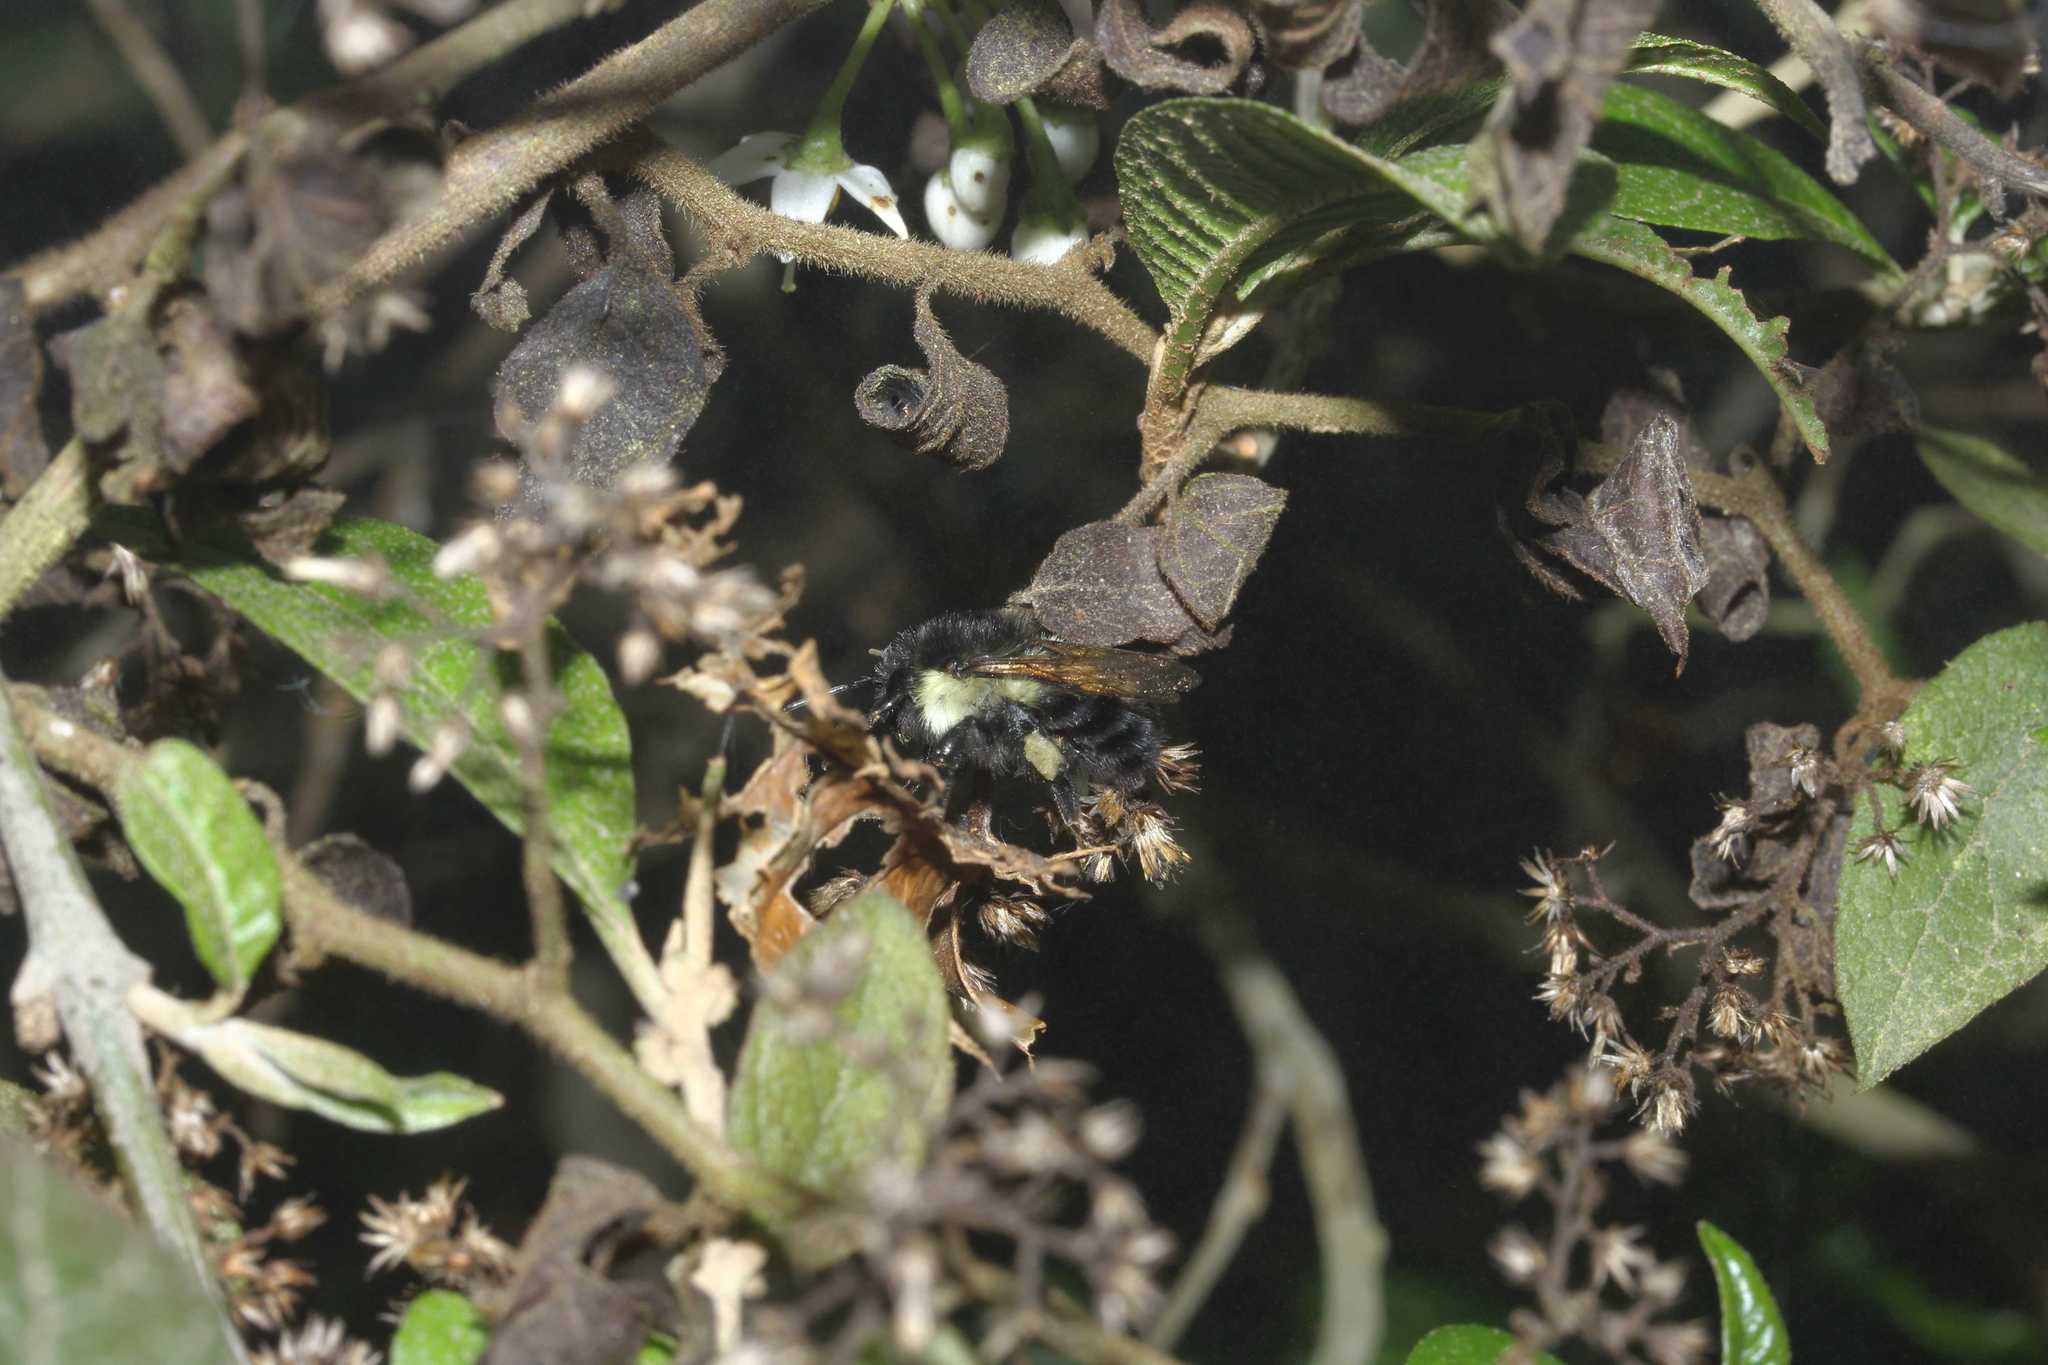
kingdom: Animalia
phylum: Arthropoda
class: Insecta
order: Hymenoptera
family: Apidae
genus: Bombus
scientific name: Bombus wilmattae
